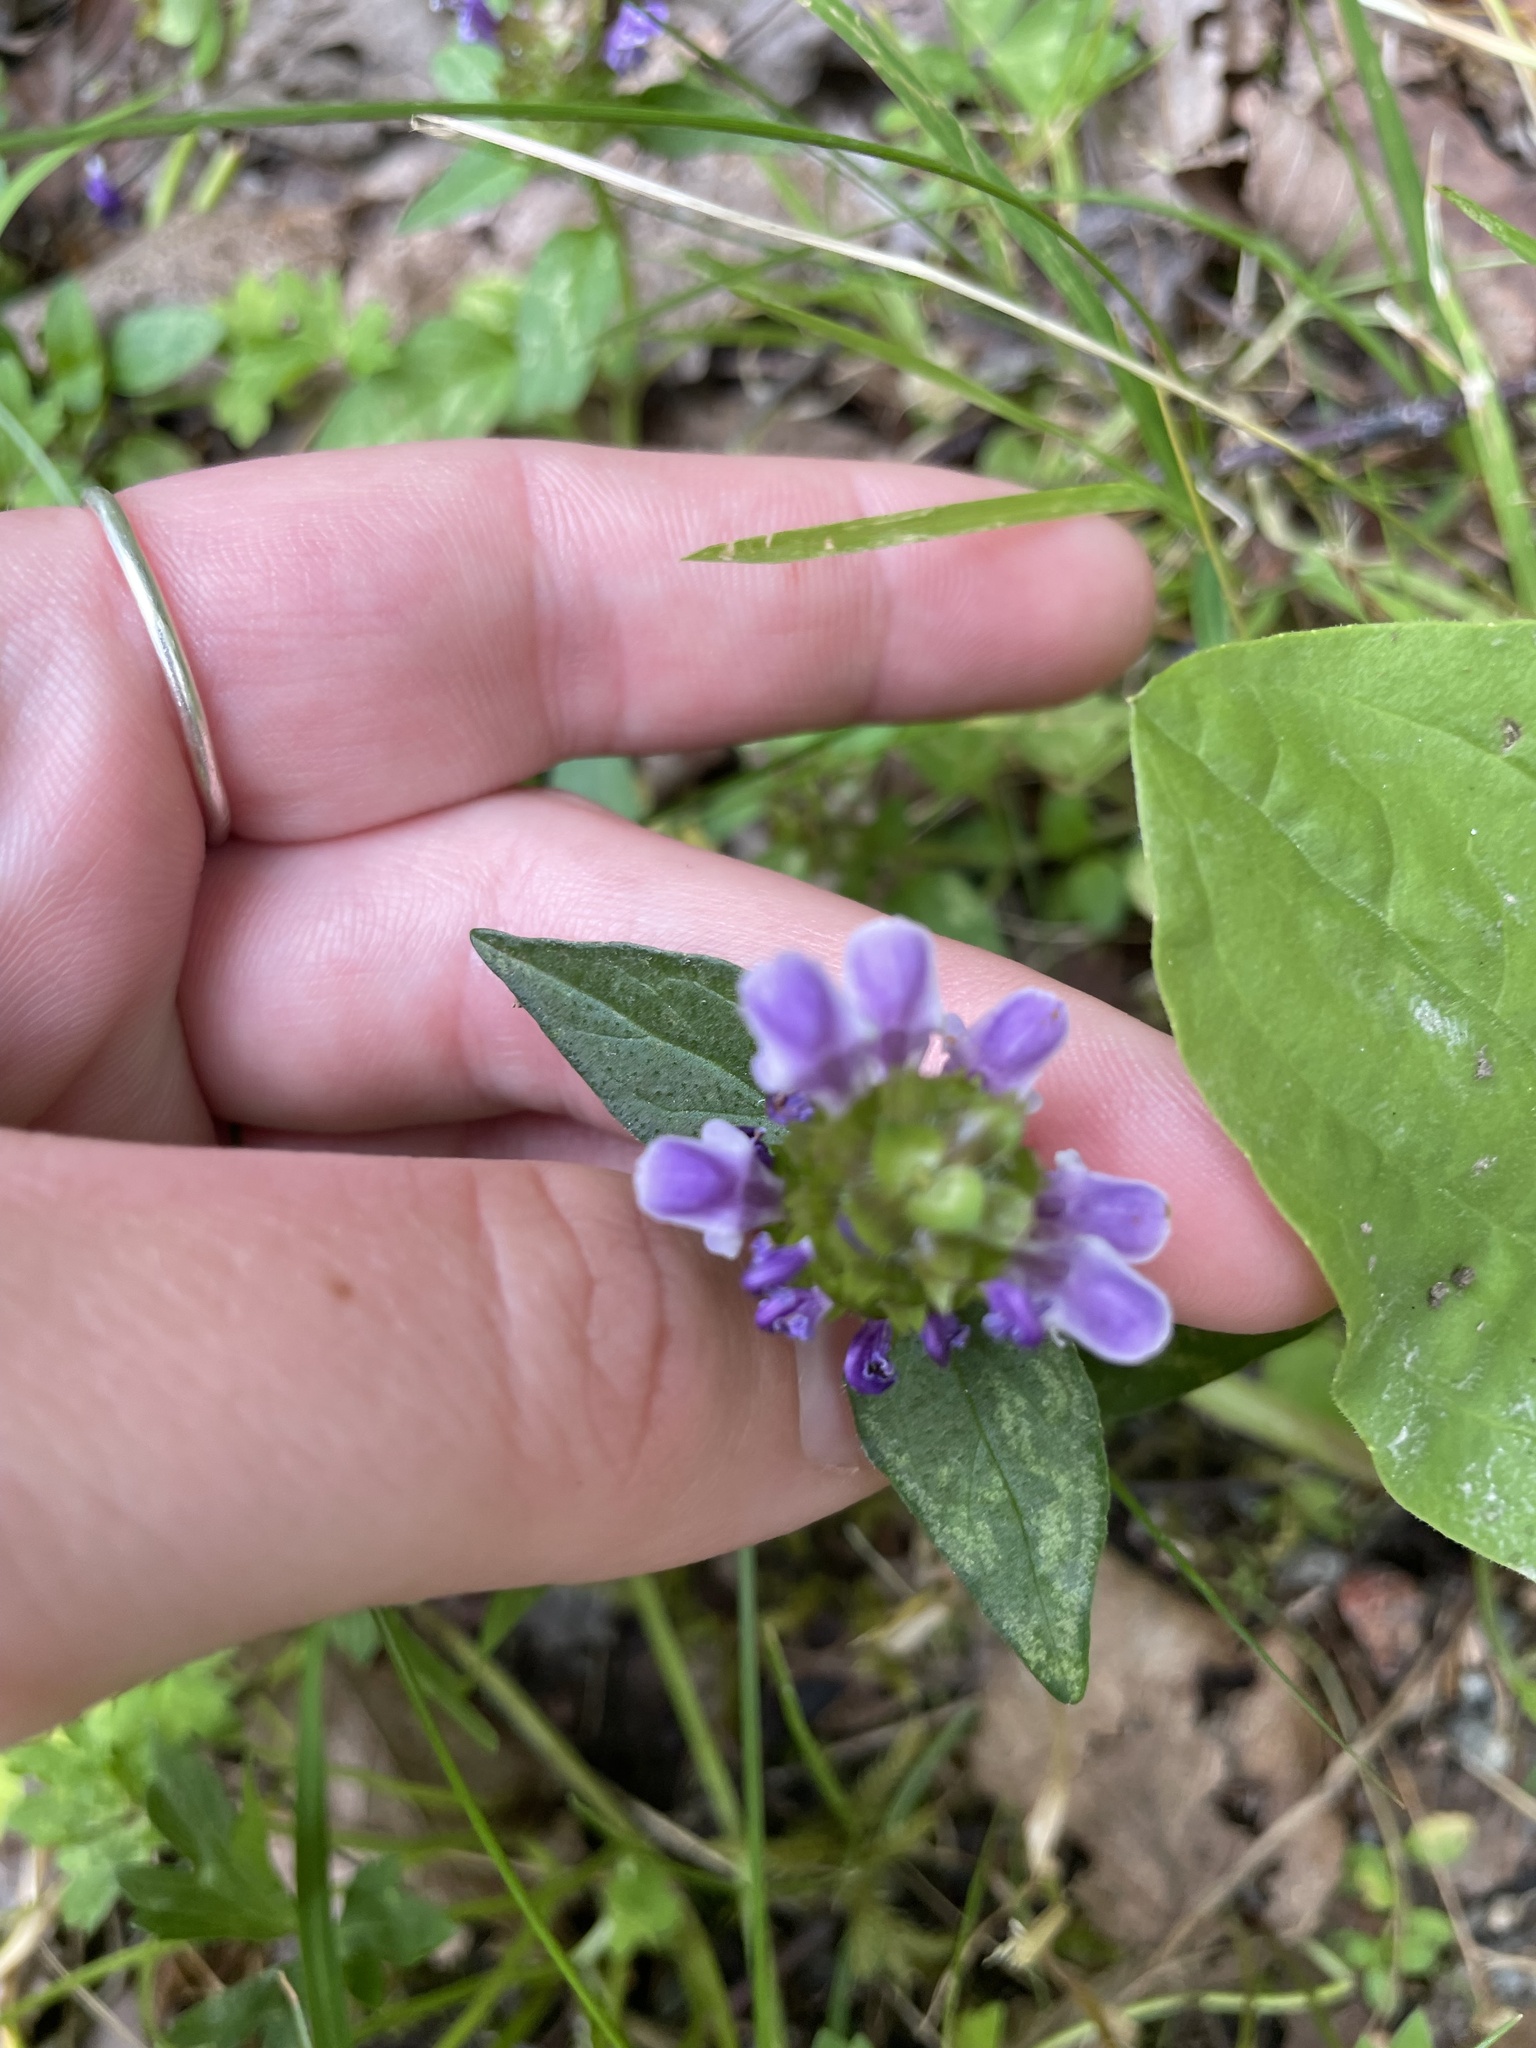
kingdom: Plantae
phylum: Tracheophyta
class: Magnoliopsida
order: Lamiales
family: Lamiaceae
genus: Prunella
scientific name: Prunella vulgaris
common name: Heal-all
